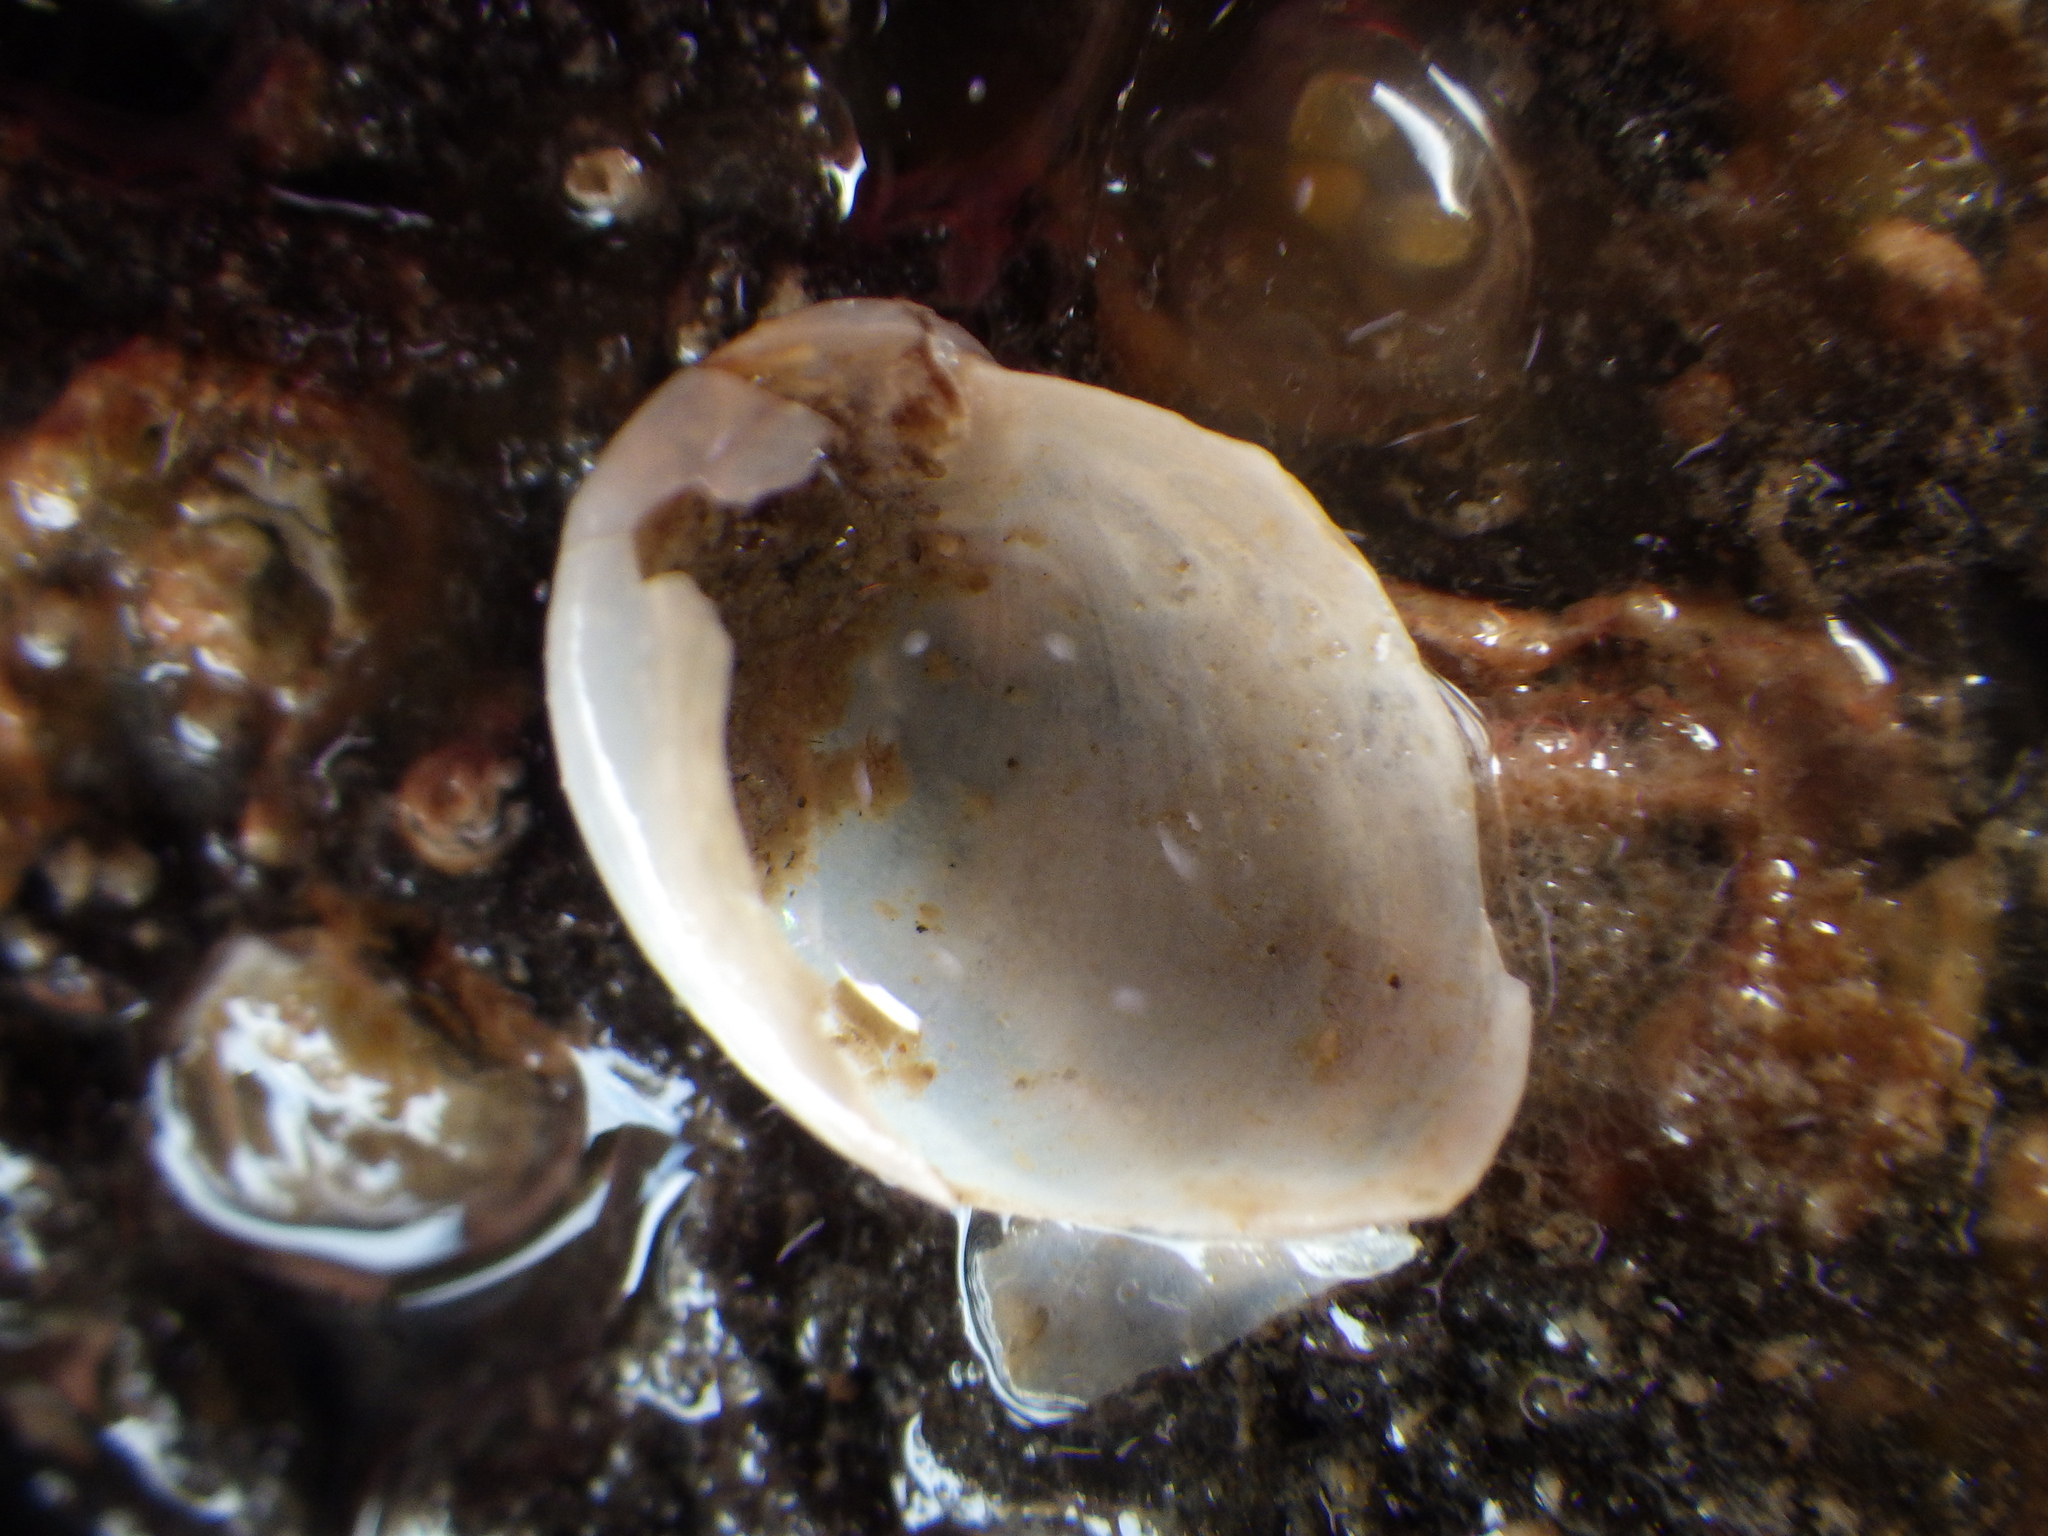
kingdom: Animalia
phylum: Mollusca
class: Gastropoda
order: Littorinimorpha
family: Velutinidae
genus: Lamellaria
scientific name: Lamellaria ophione
